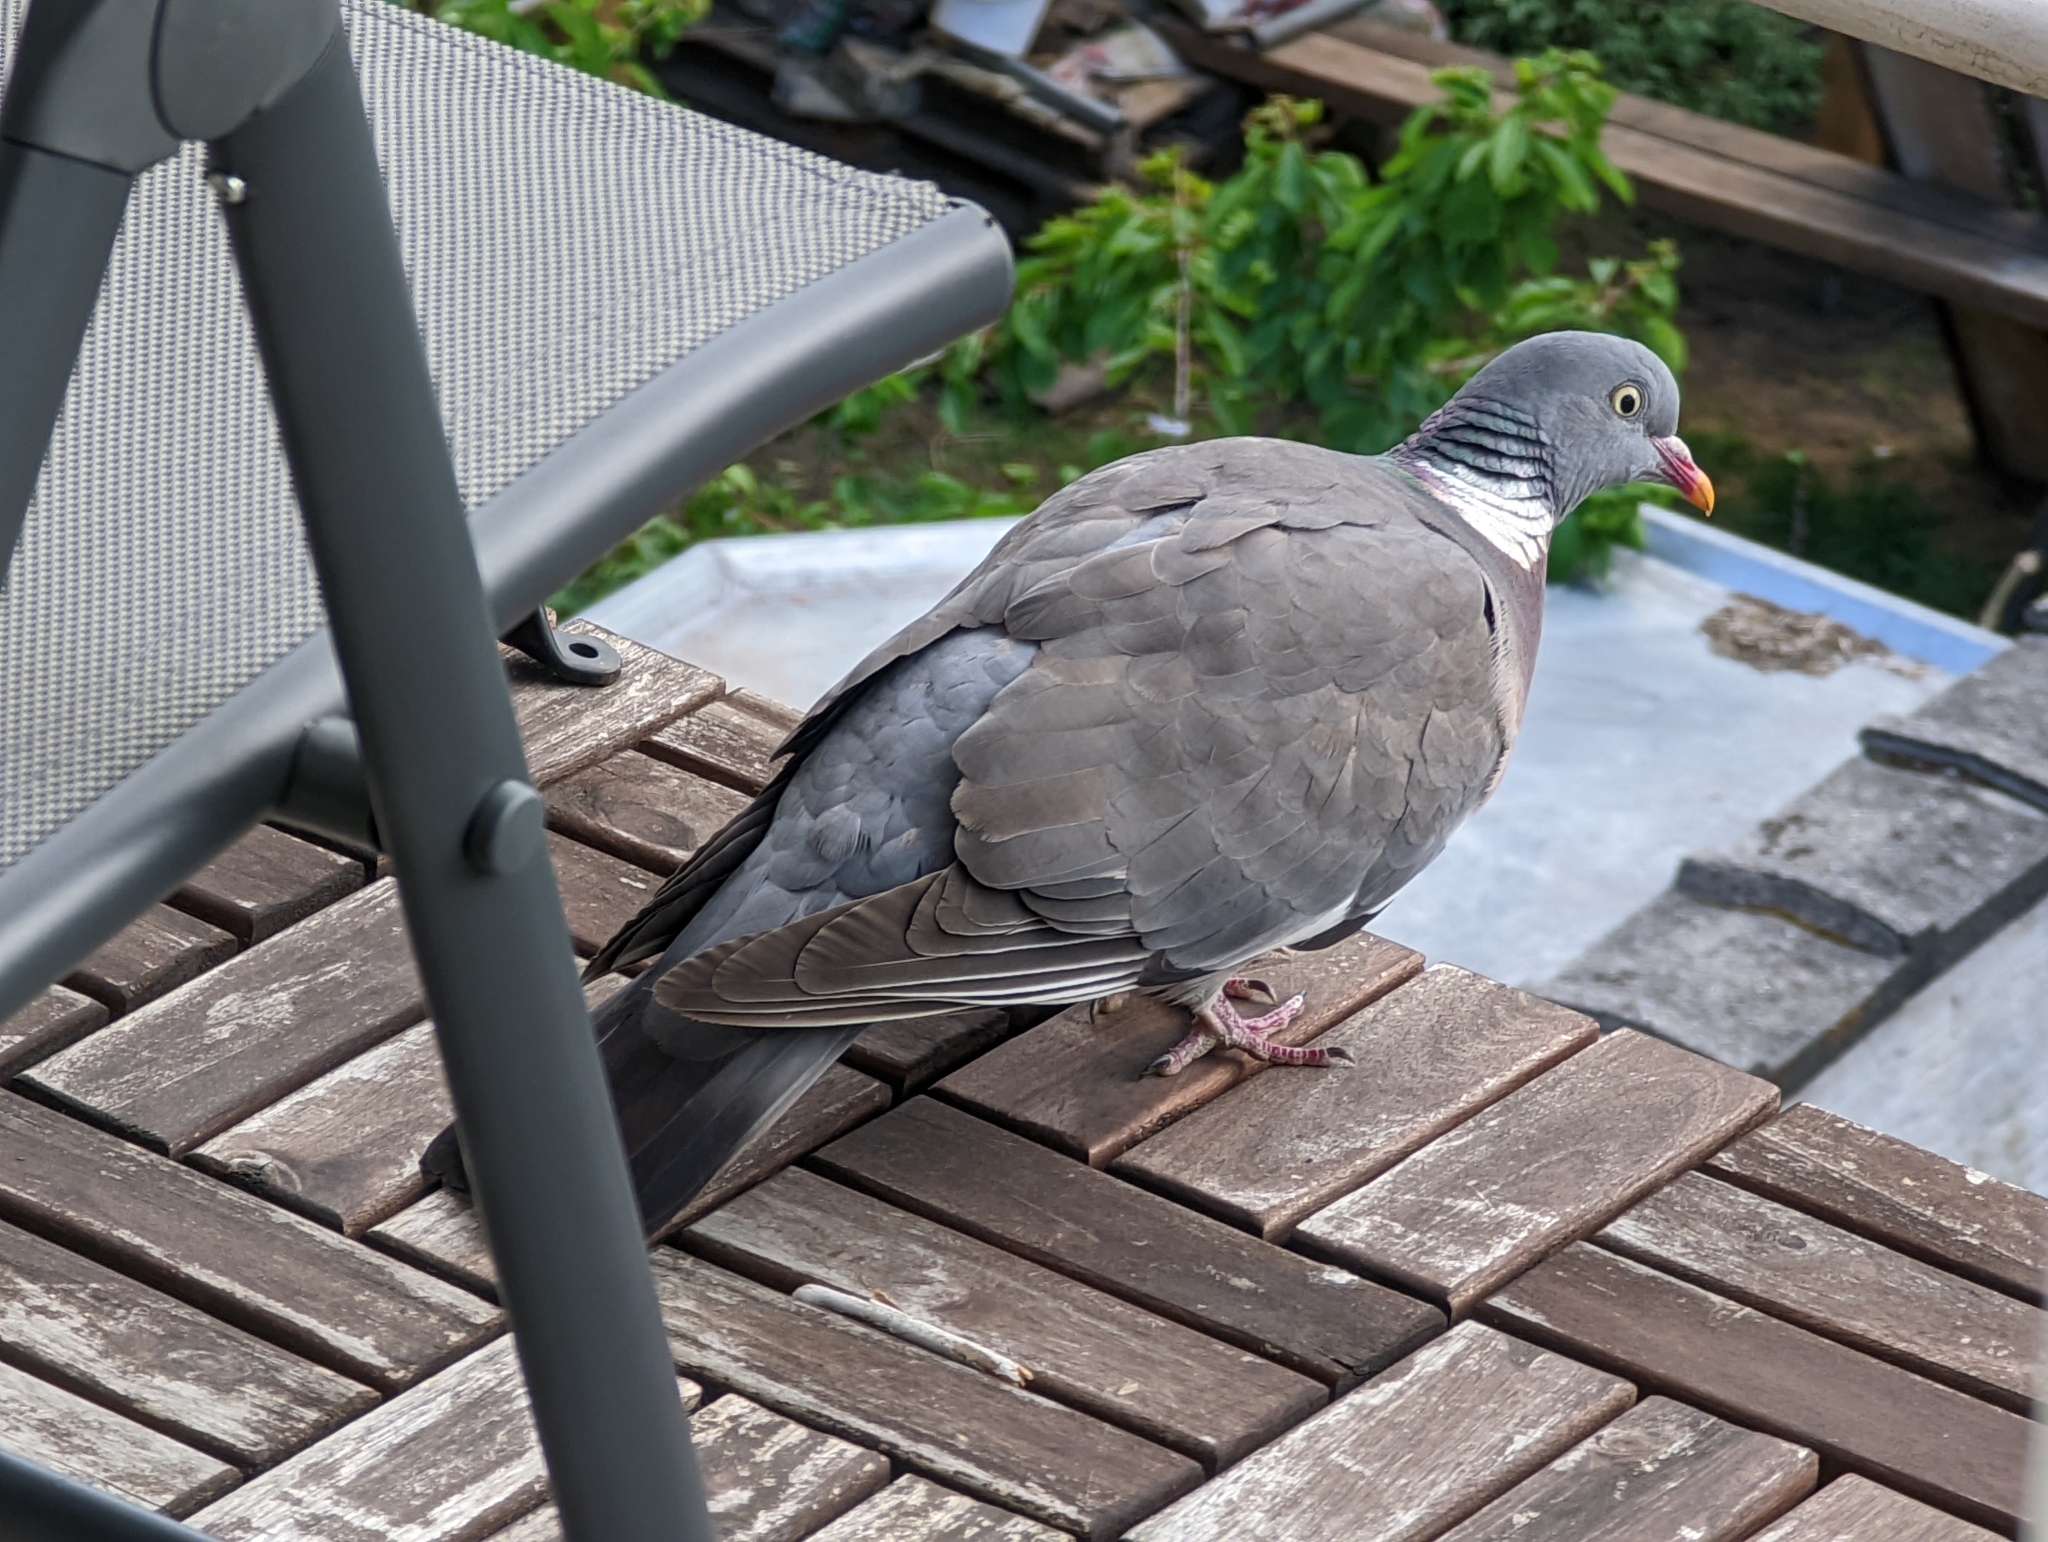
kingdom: Animalia
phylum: Chordata
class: Aves
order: Columbiformes
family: Columbidae
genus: Columba
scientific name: Columba palumbus
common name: Common wood pigeon
